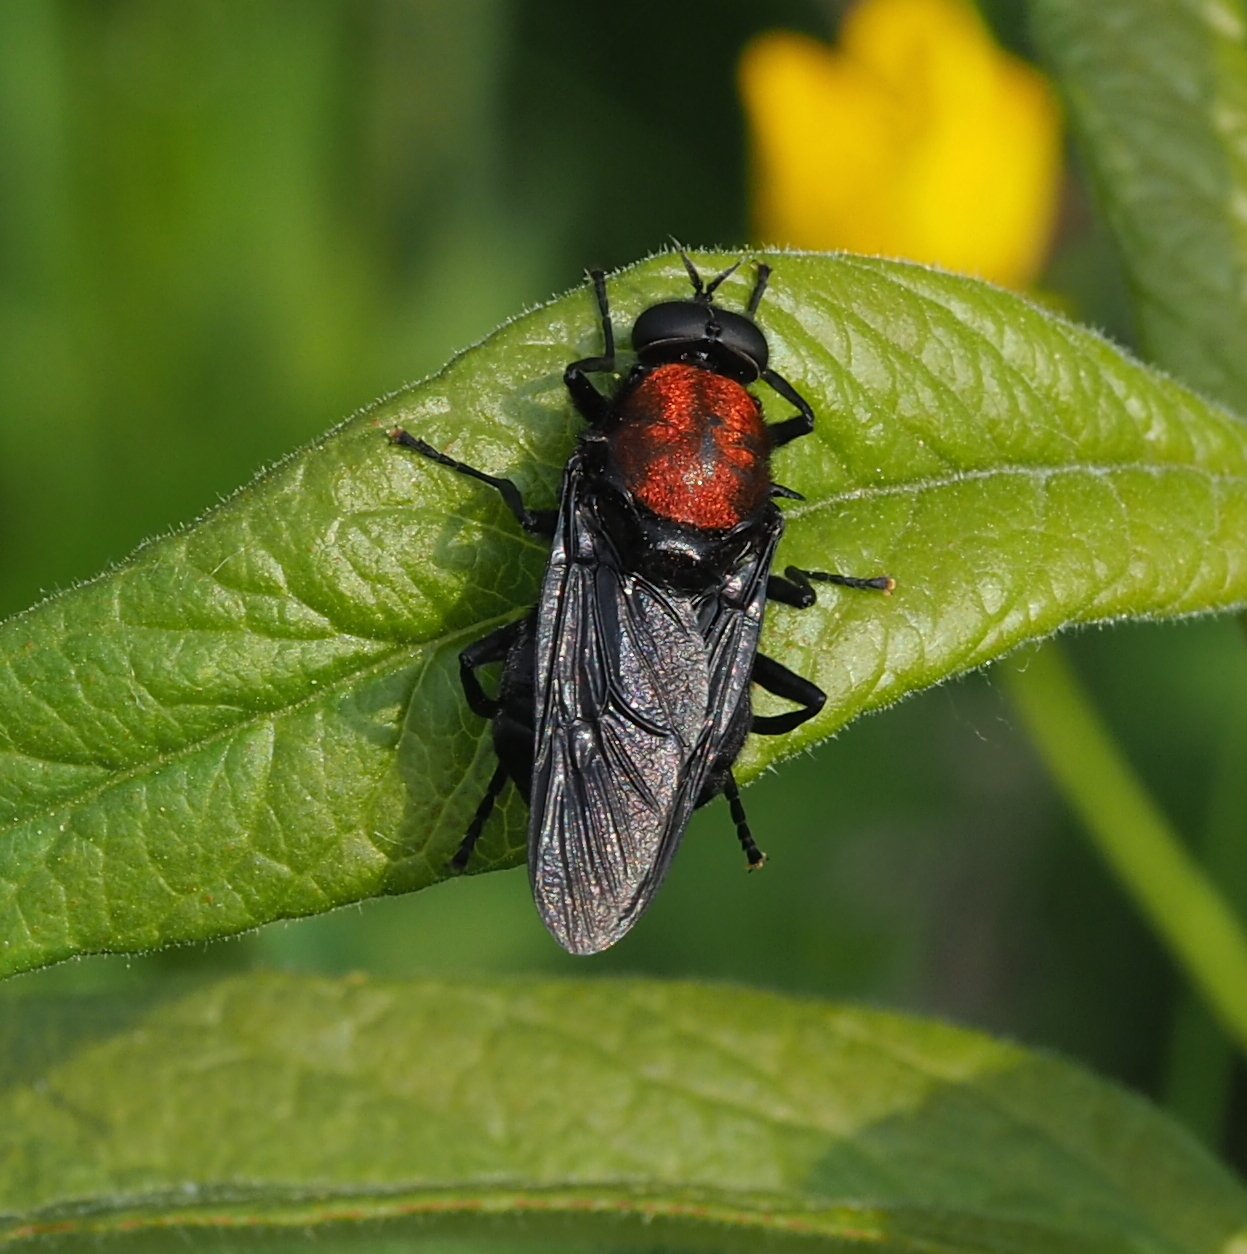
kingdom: Animalia
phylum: Arthropoda
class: Insecta
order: Diptera
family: Stratiomyidae
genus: Clitellaria
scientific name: Clitellaria ephippium
